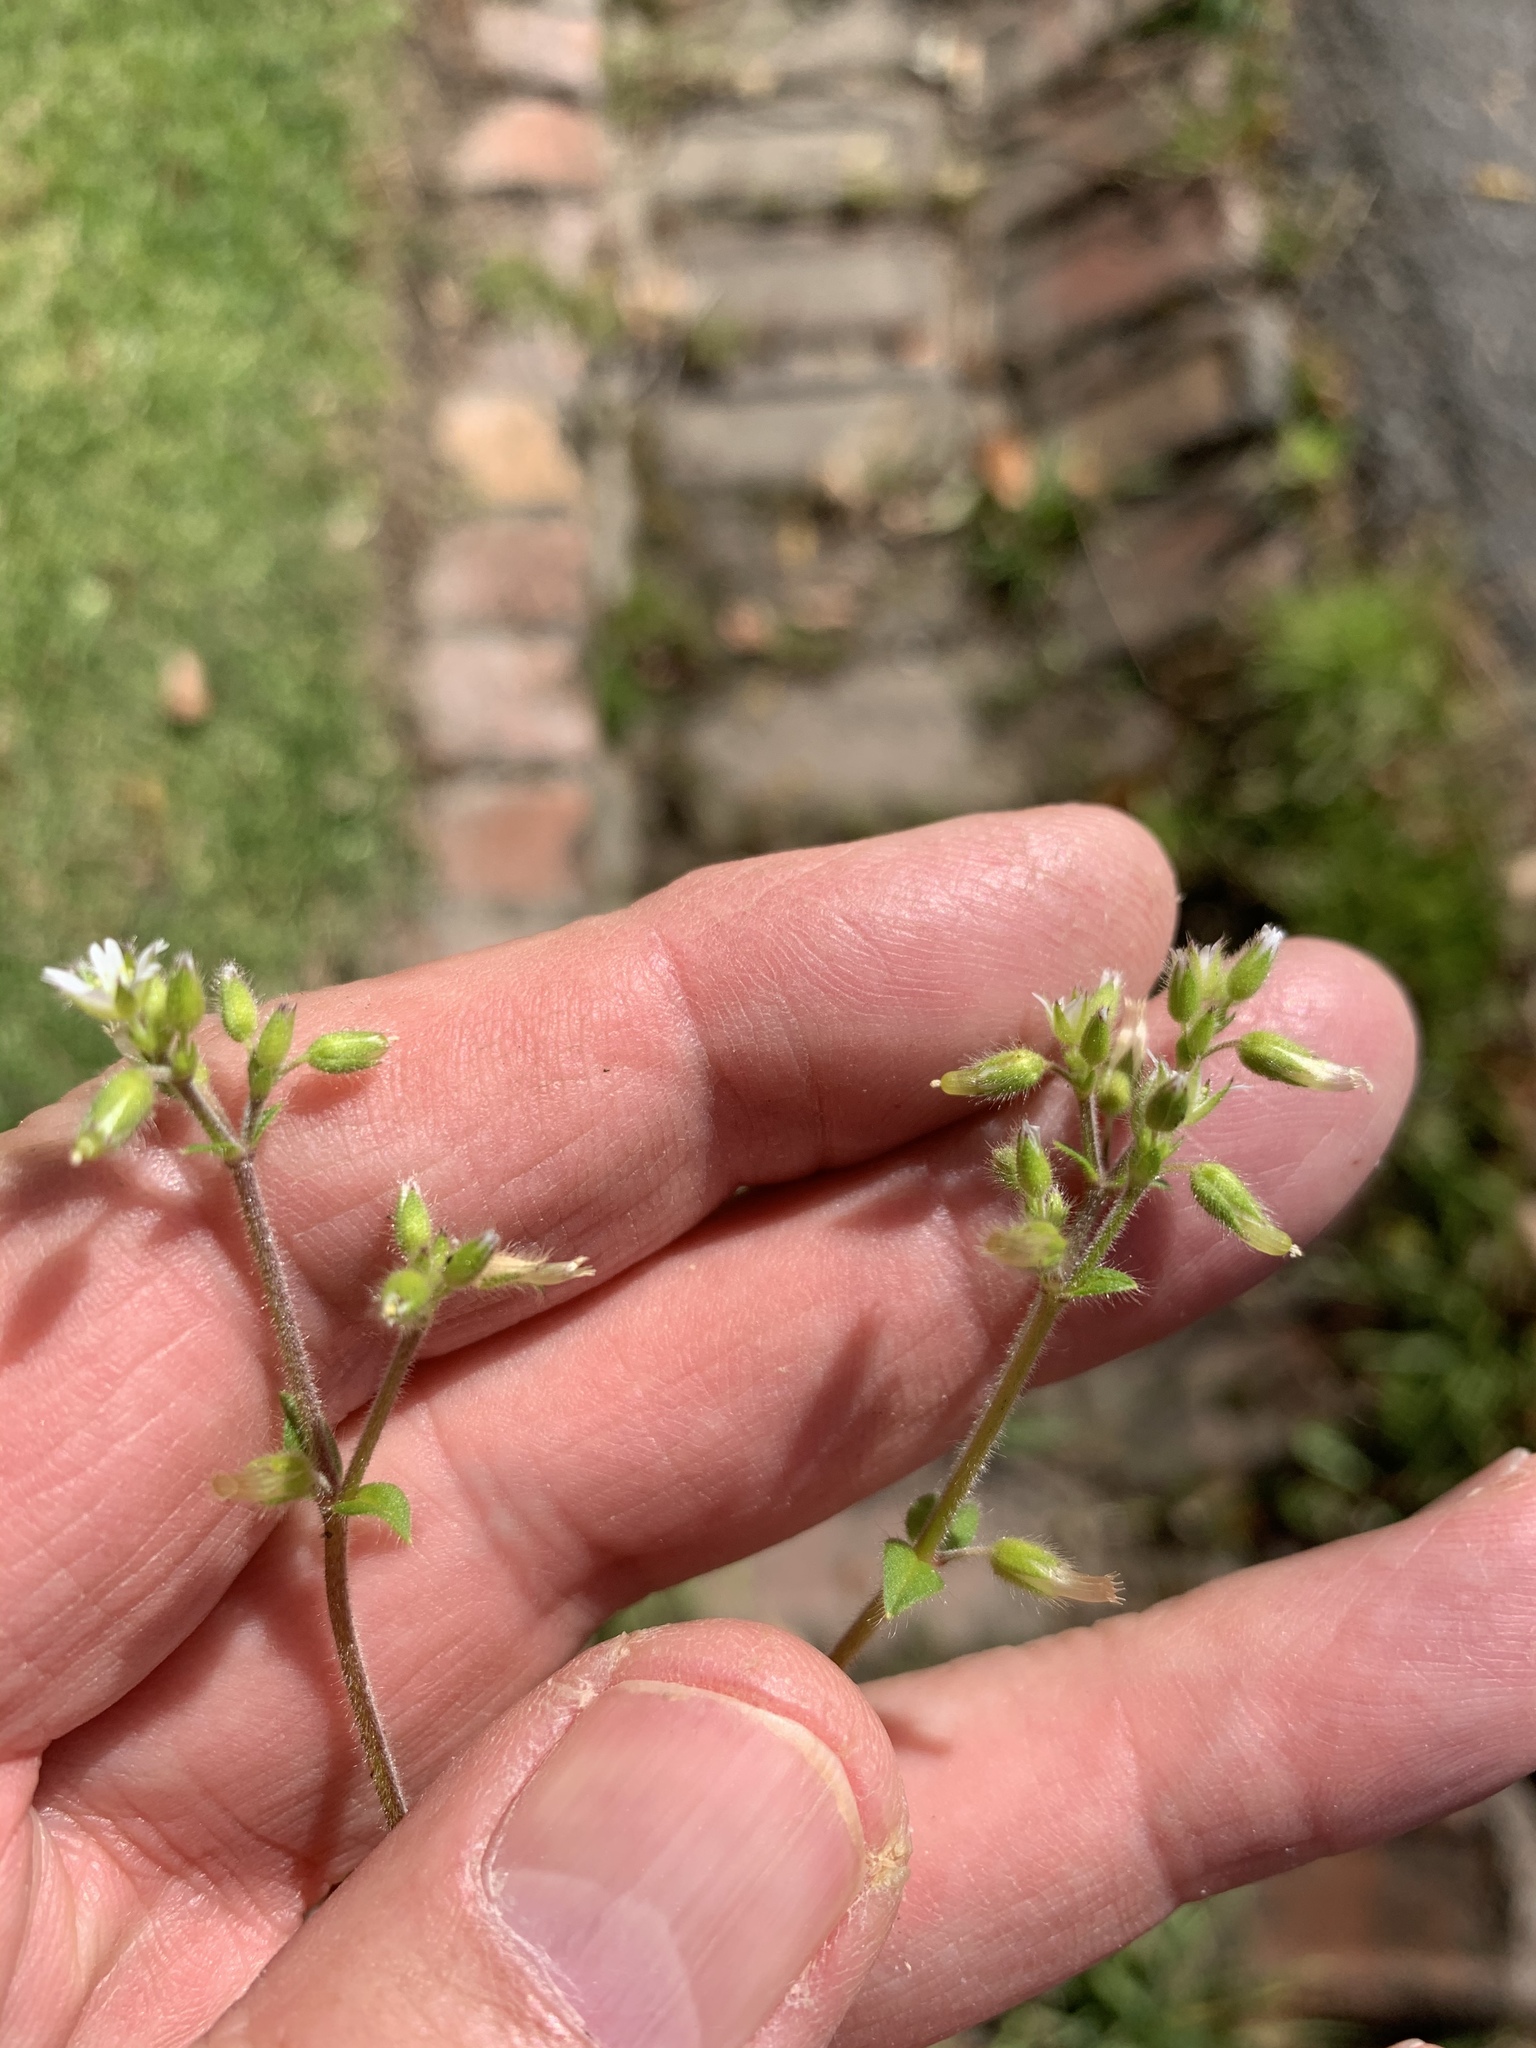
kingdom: Plantae
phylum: Tracheophyta
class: Magnoliopsida
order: Caryophyllales
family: Caryophyllaceae
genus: Cerastium
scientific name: Cerastium glomeratum
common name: Sticky chickweed
